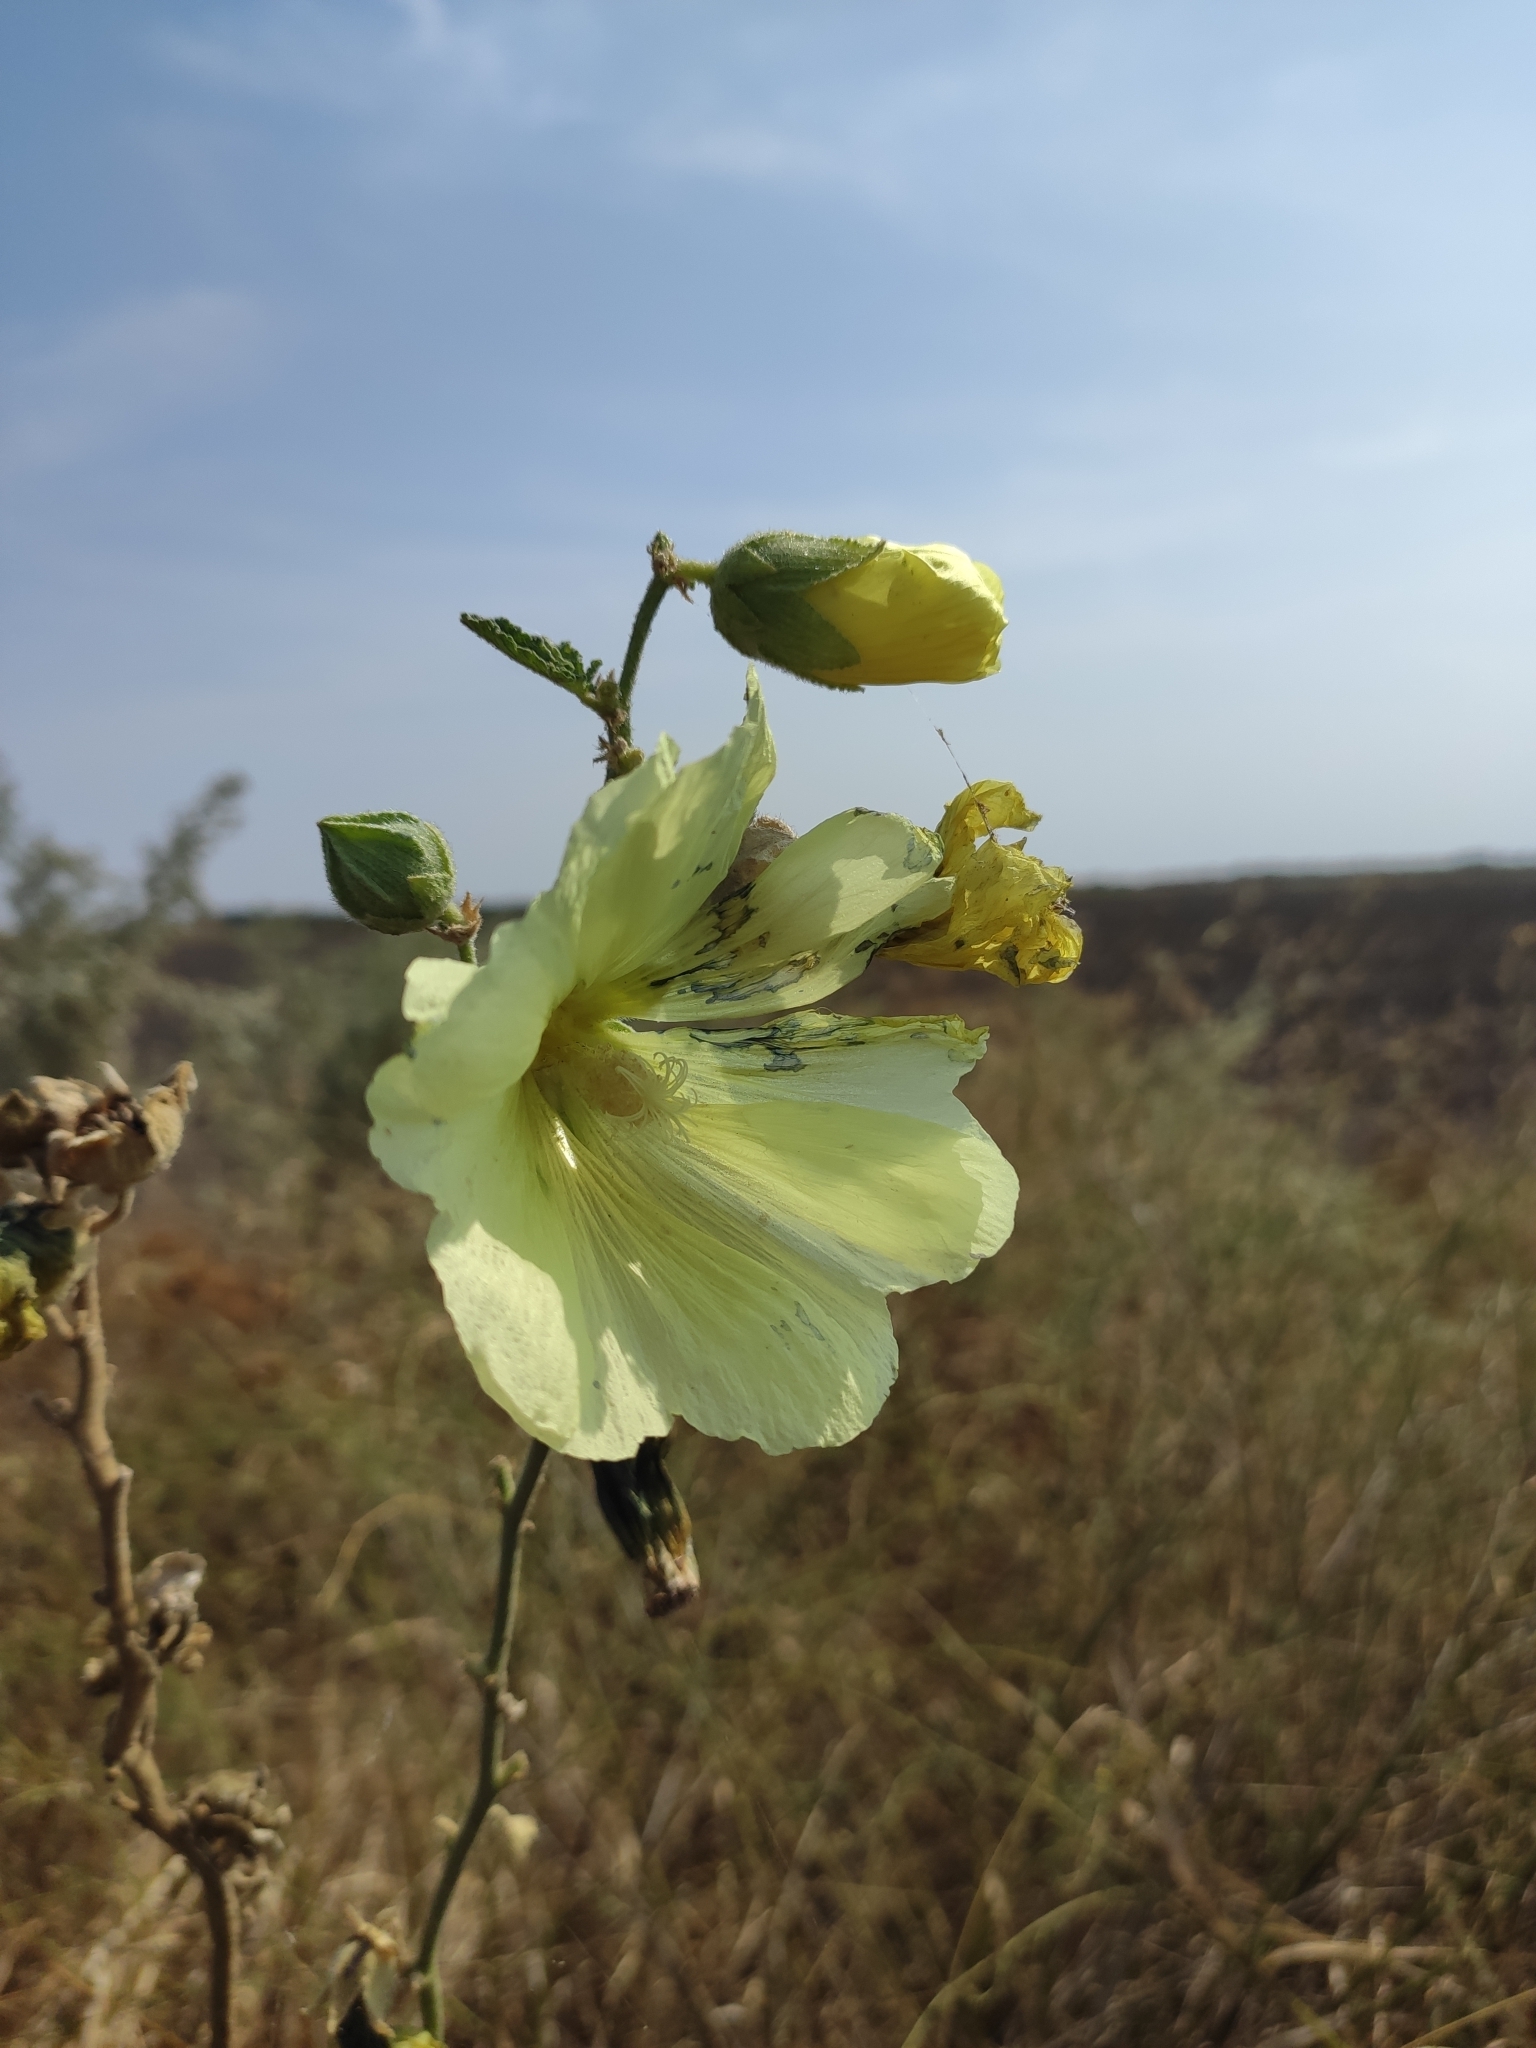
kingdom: Plantae
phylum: Tracheophyta
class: Magnoliopsida
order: Malvales
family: Malvaceae
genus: Alcea
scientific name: Alcea rugosa
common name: Russian hollyhock
